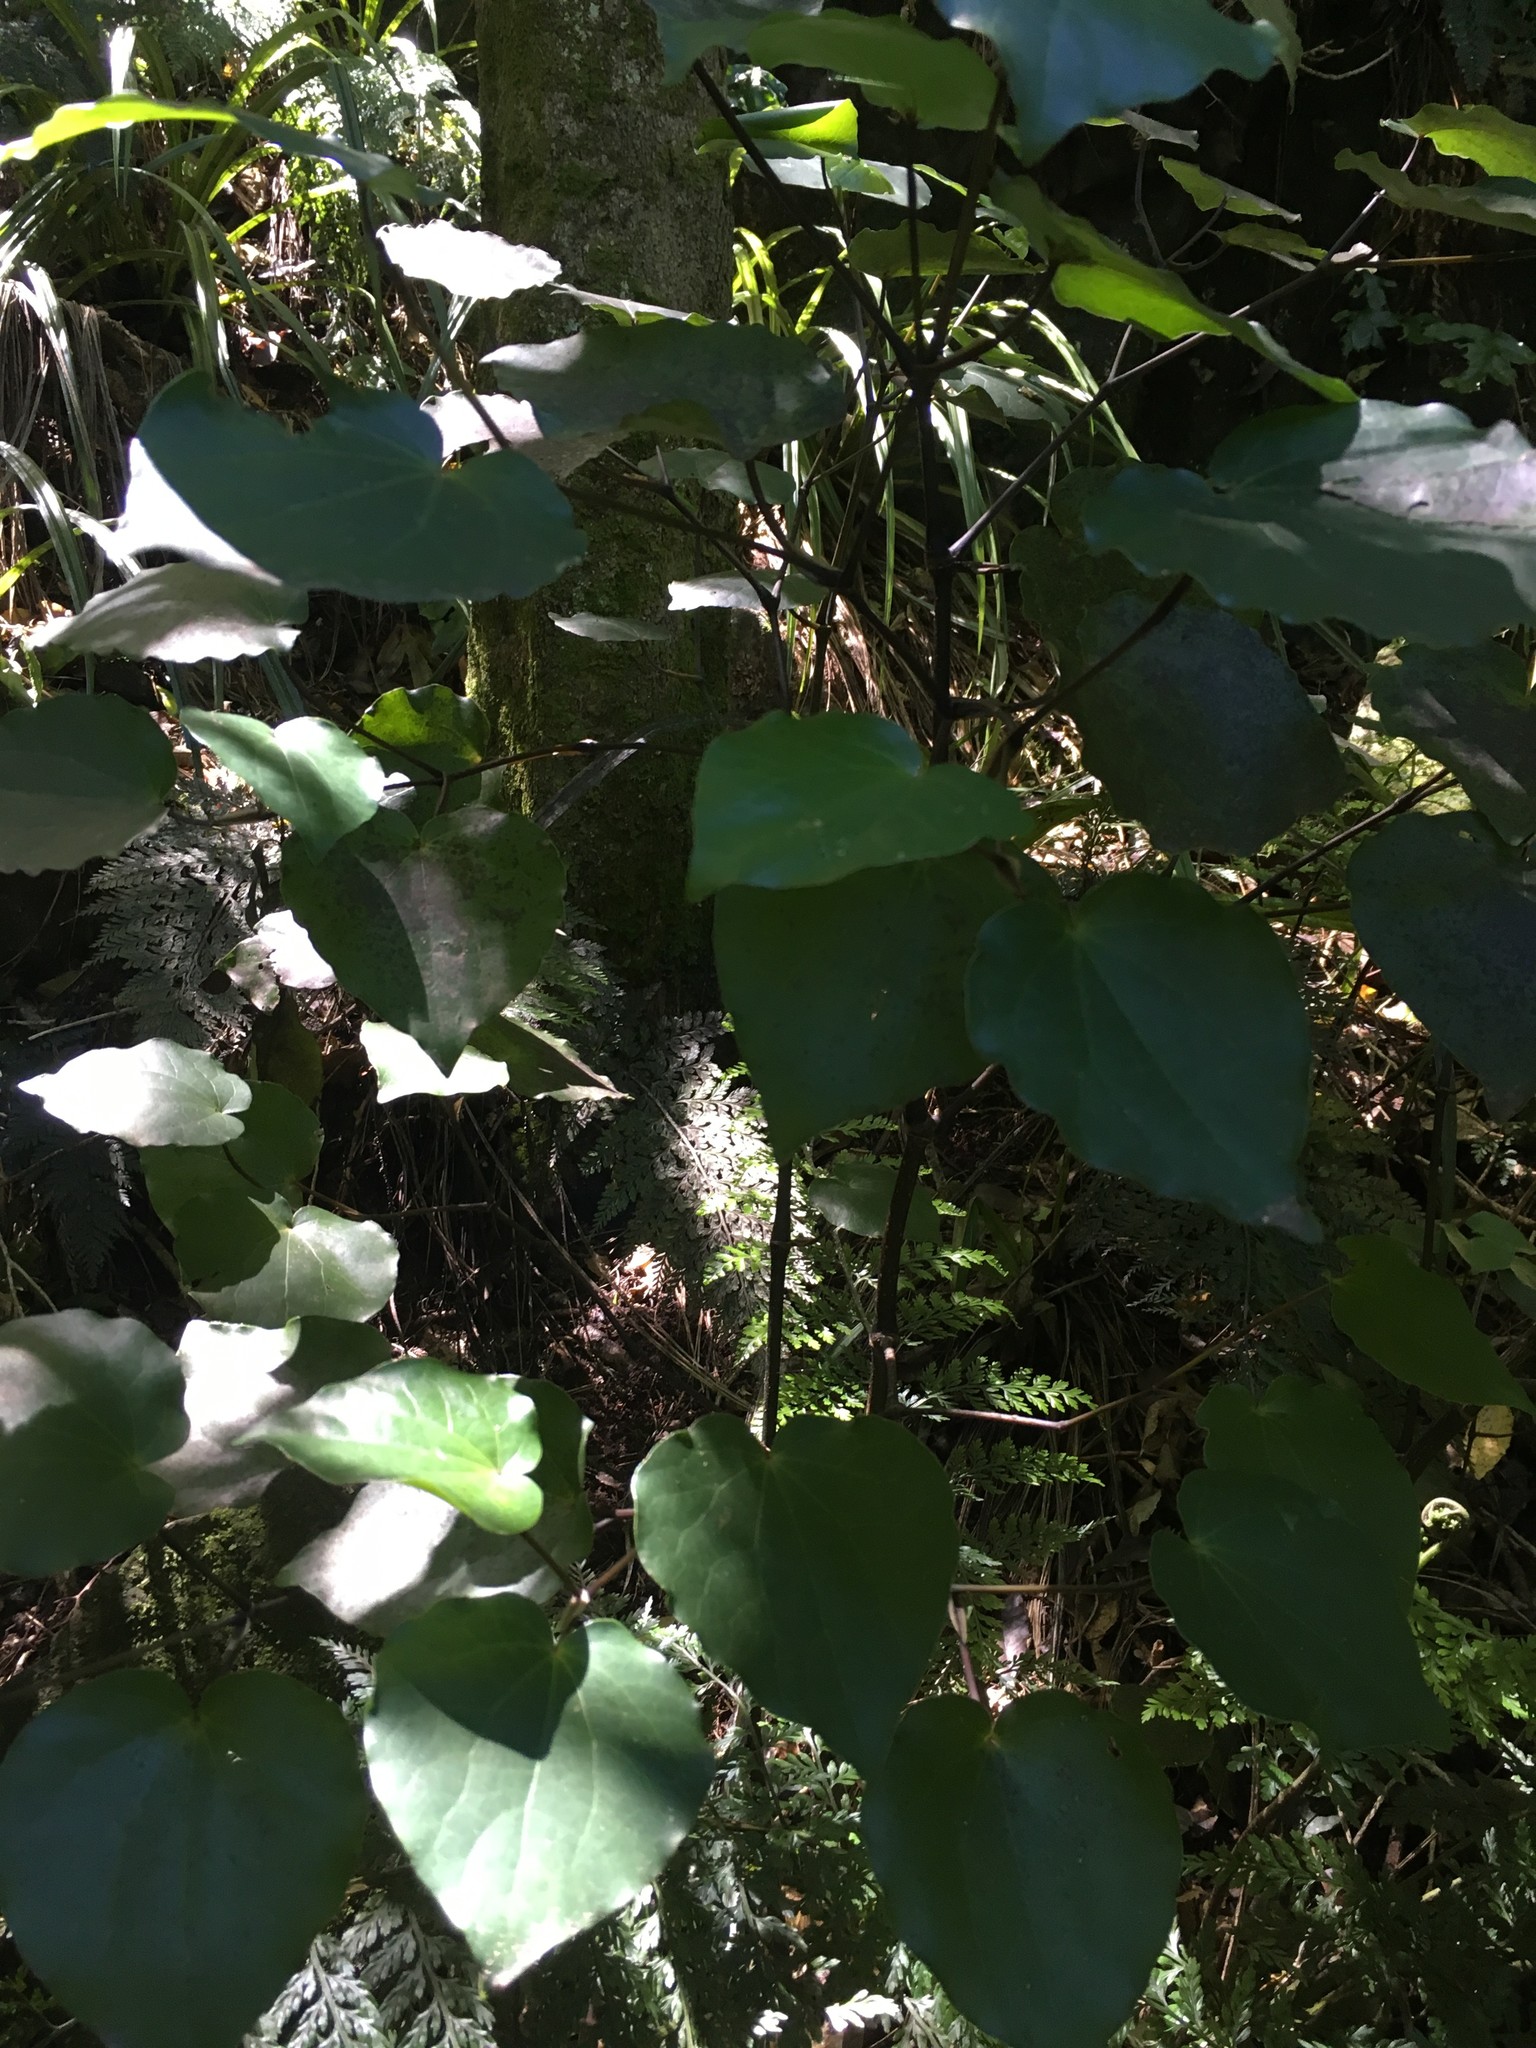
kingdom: Plantae
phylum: Tracheophyta
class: Magnoliopsida
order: Piperales
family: Piperaceae
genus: Macropiper
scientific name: Macropiper excelsum
